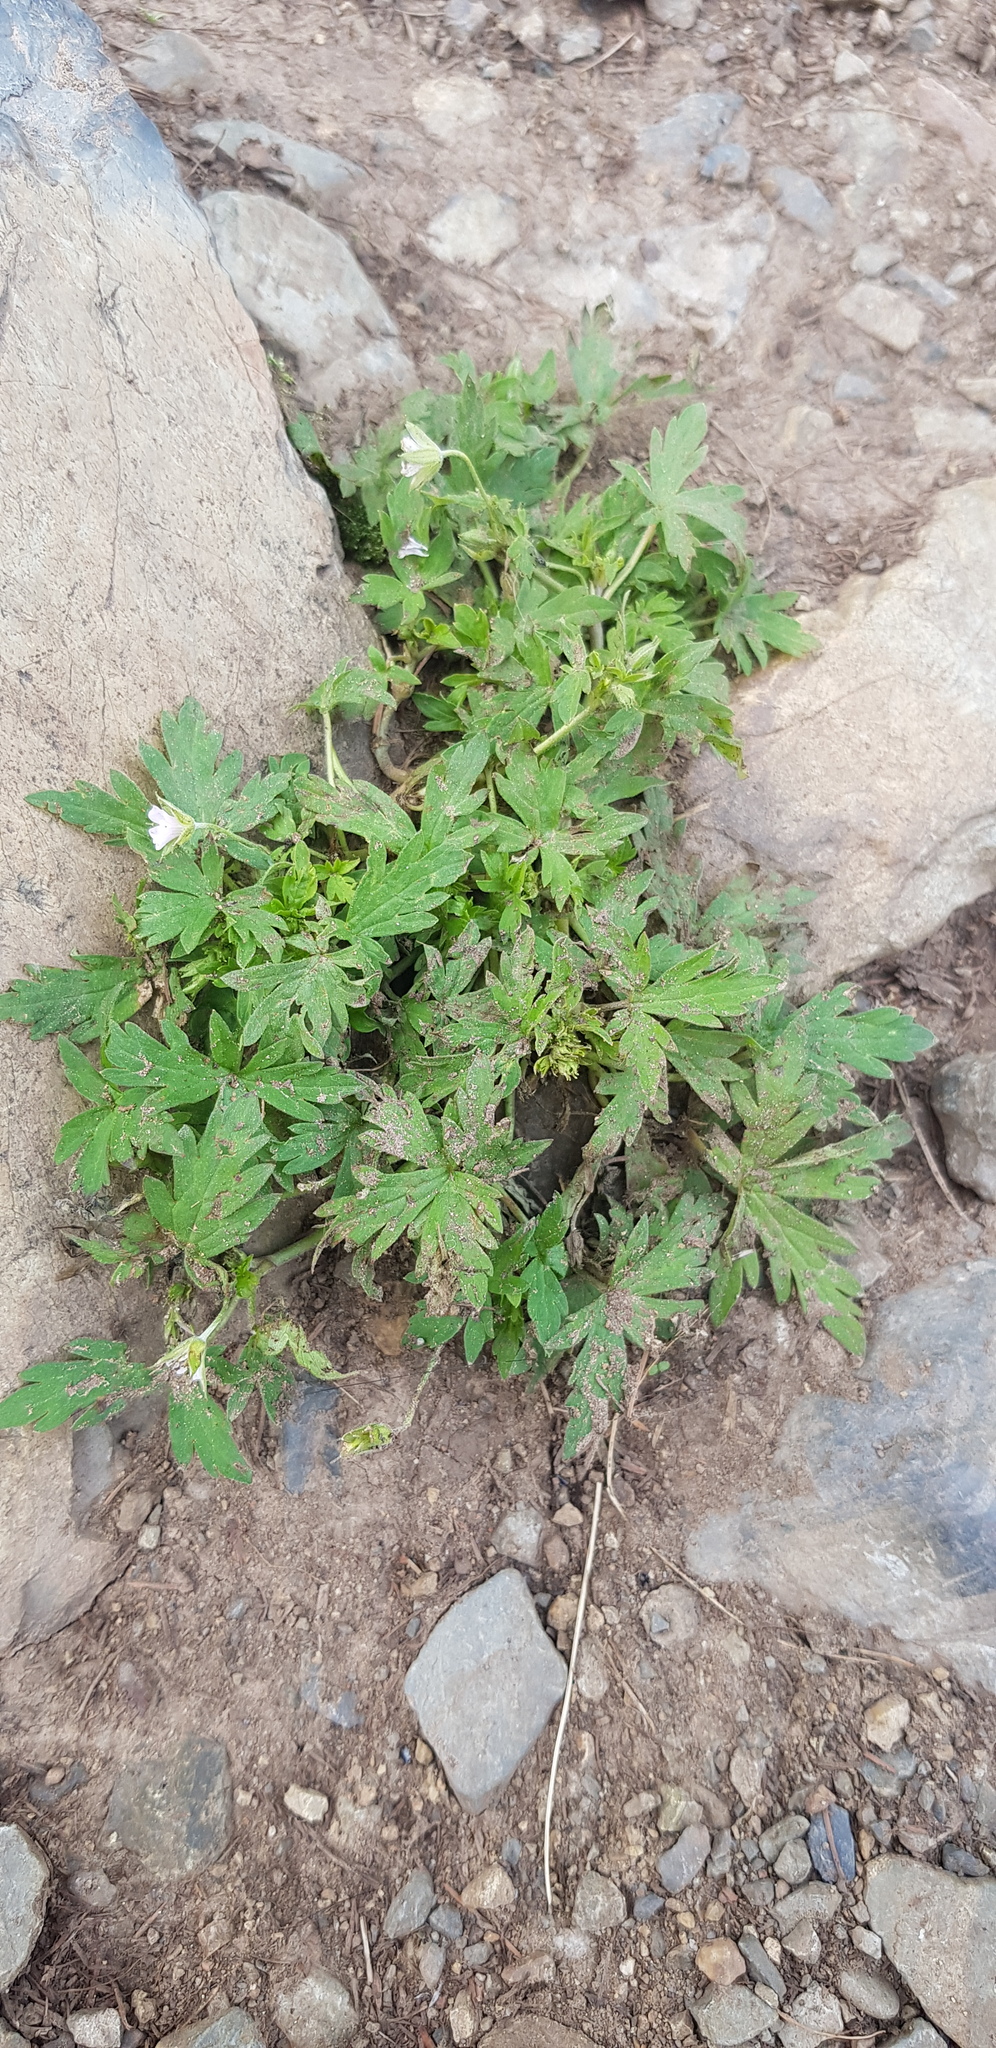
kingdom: Plantae
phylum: Tracheophyta
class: Magnoliopsida
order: Geraniales
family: Geraniaceae
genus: Geranium
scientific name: Geranium sibiricum
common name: Siberian crane's-bill
